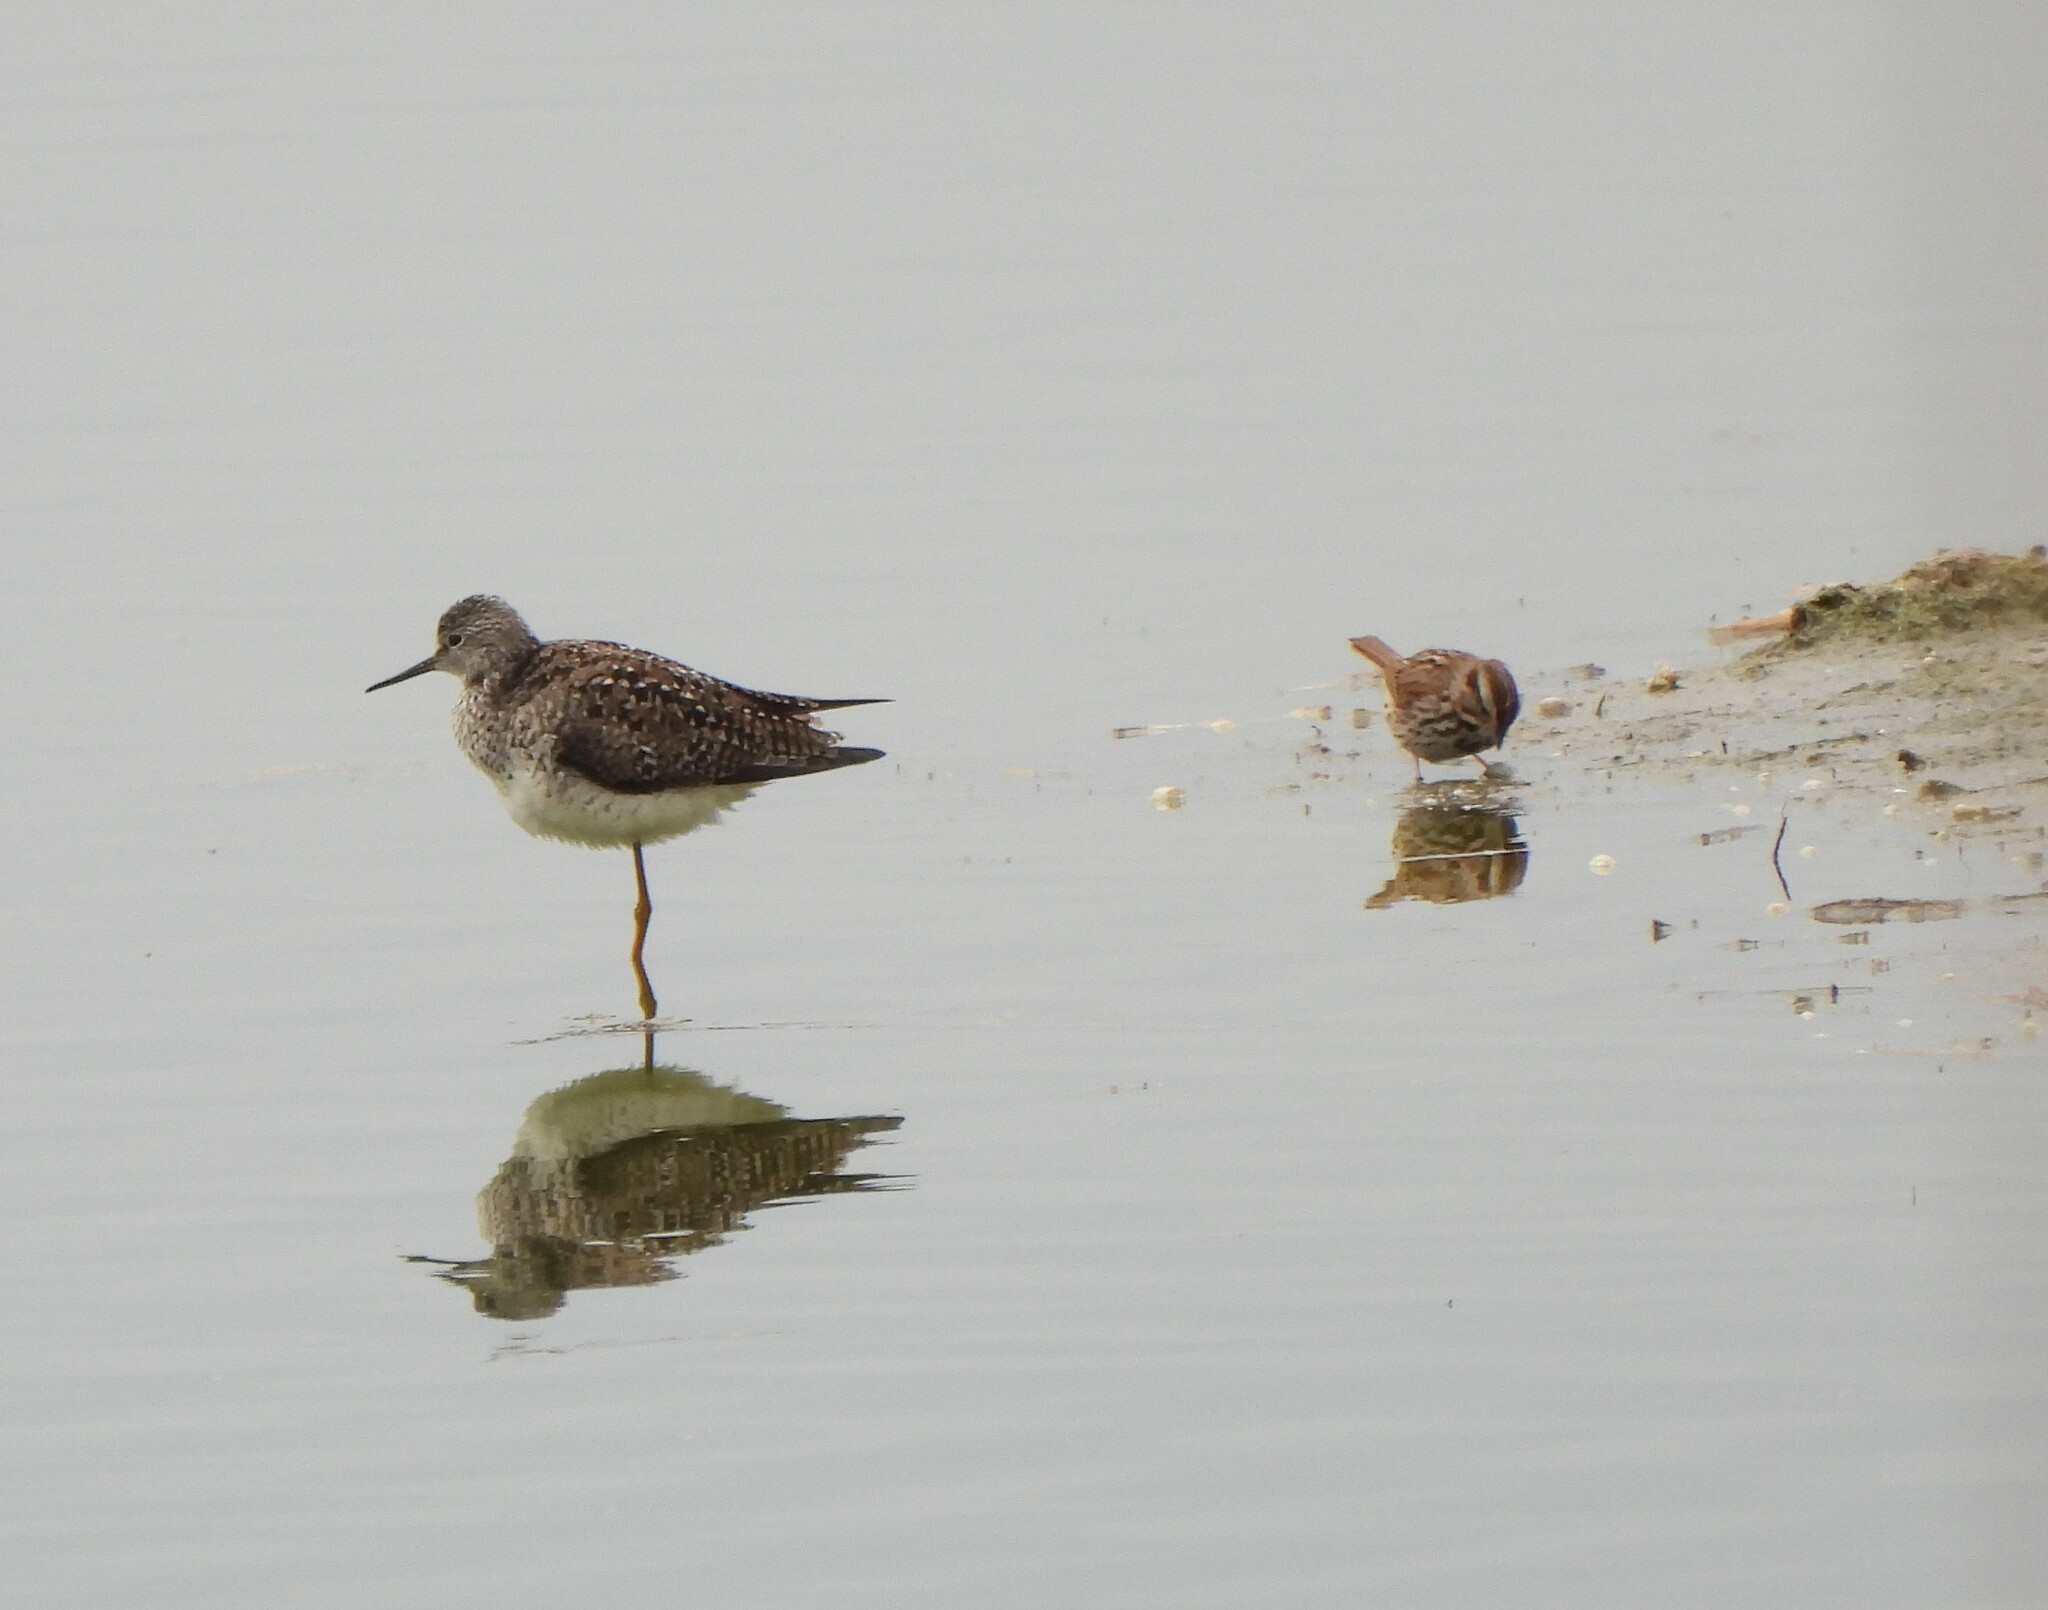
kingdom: Animalia
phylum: Chordata
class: Aves
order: Charadriiformes
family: Scolopacidae
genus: Tringa
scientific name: Tringa flavipes
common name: Lesser yellowlegs
